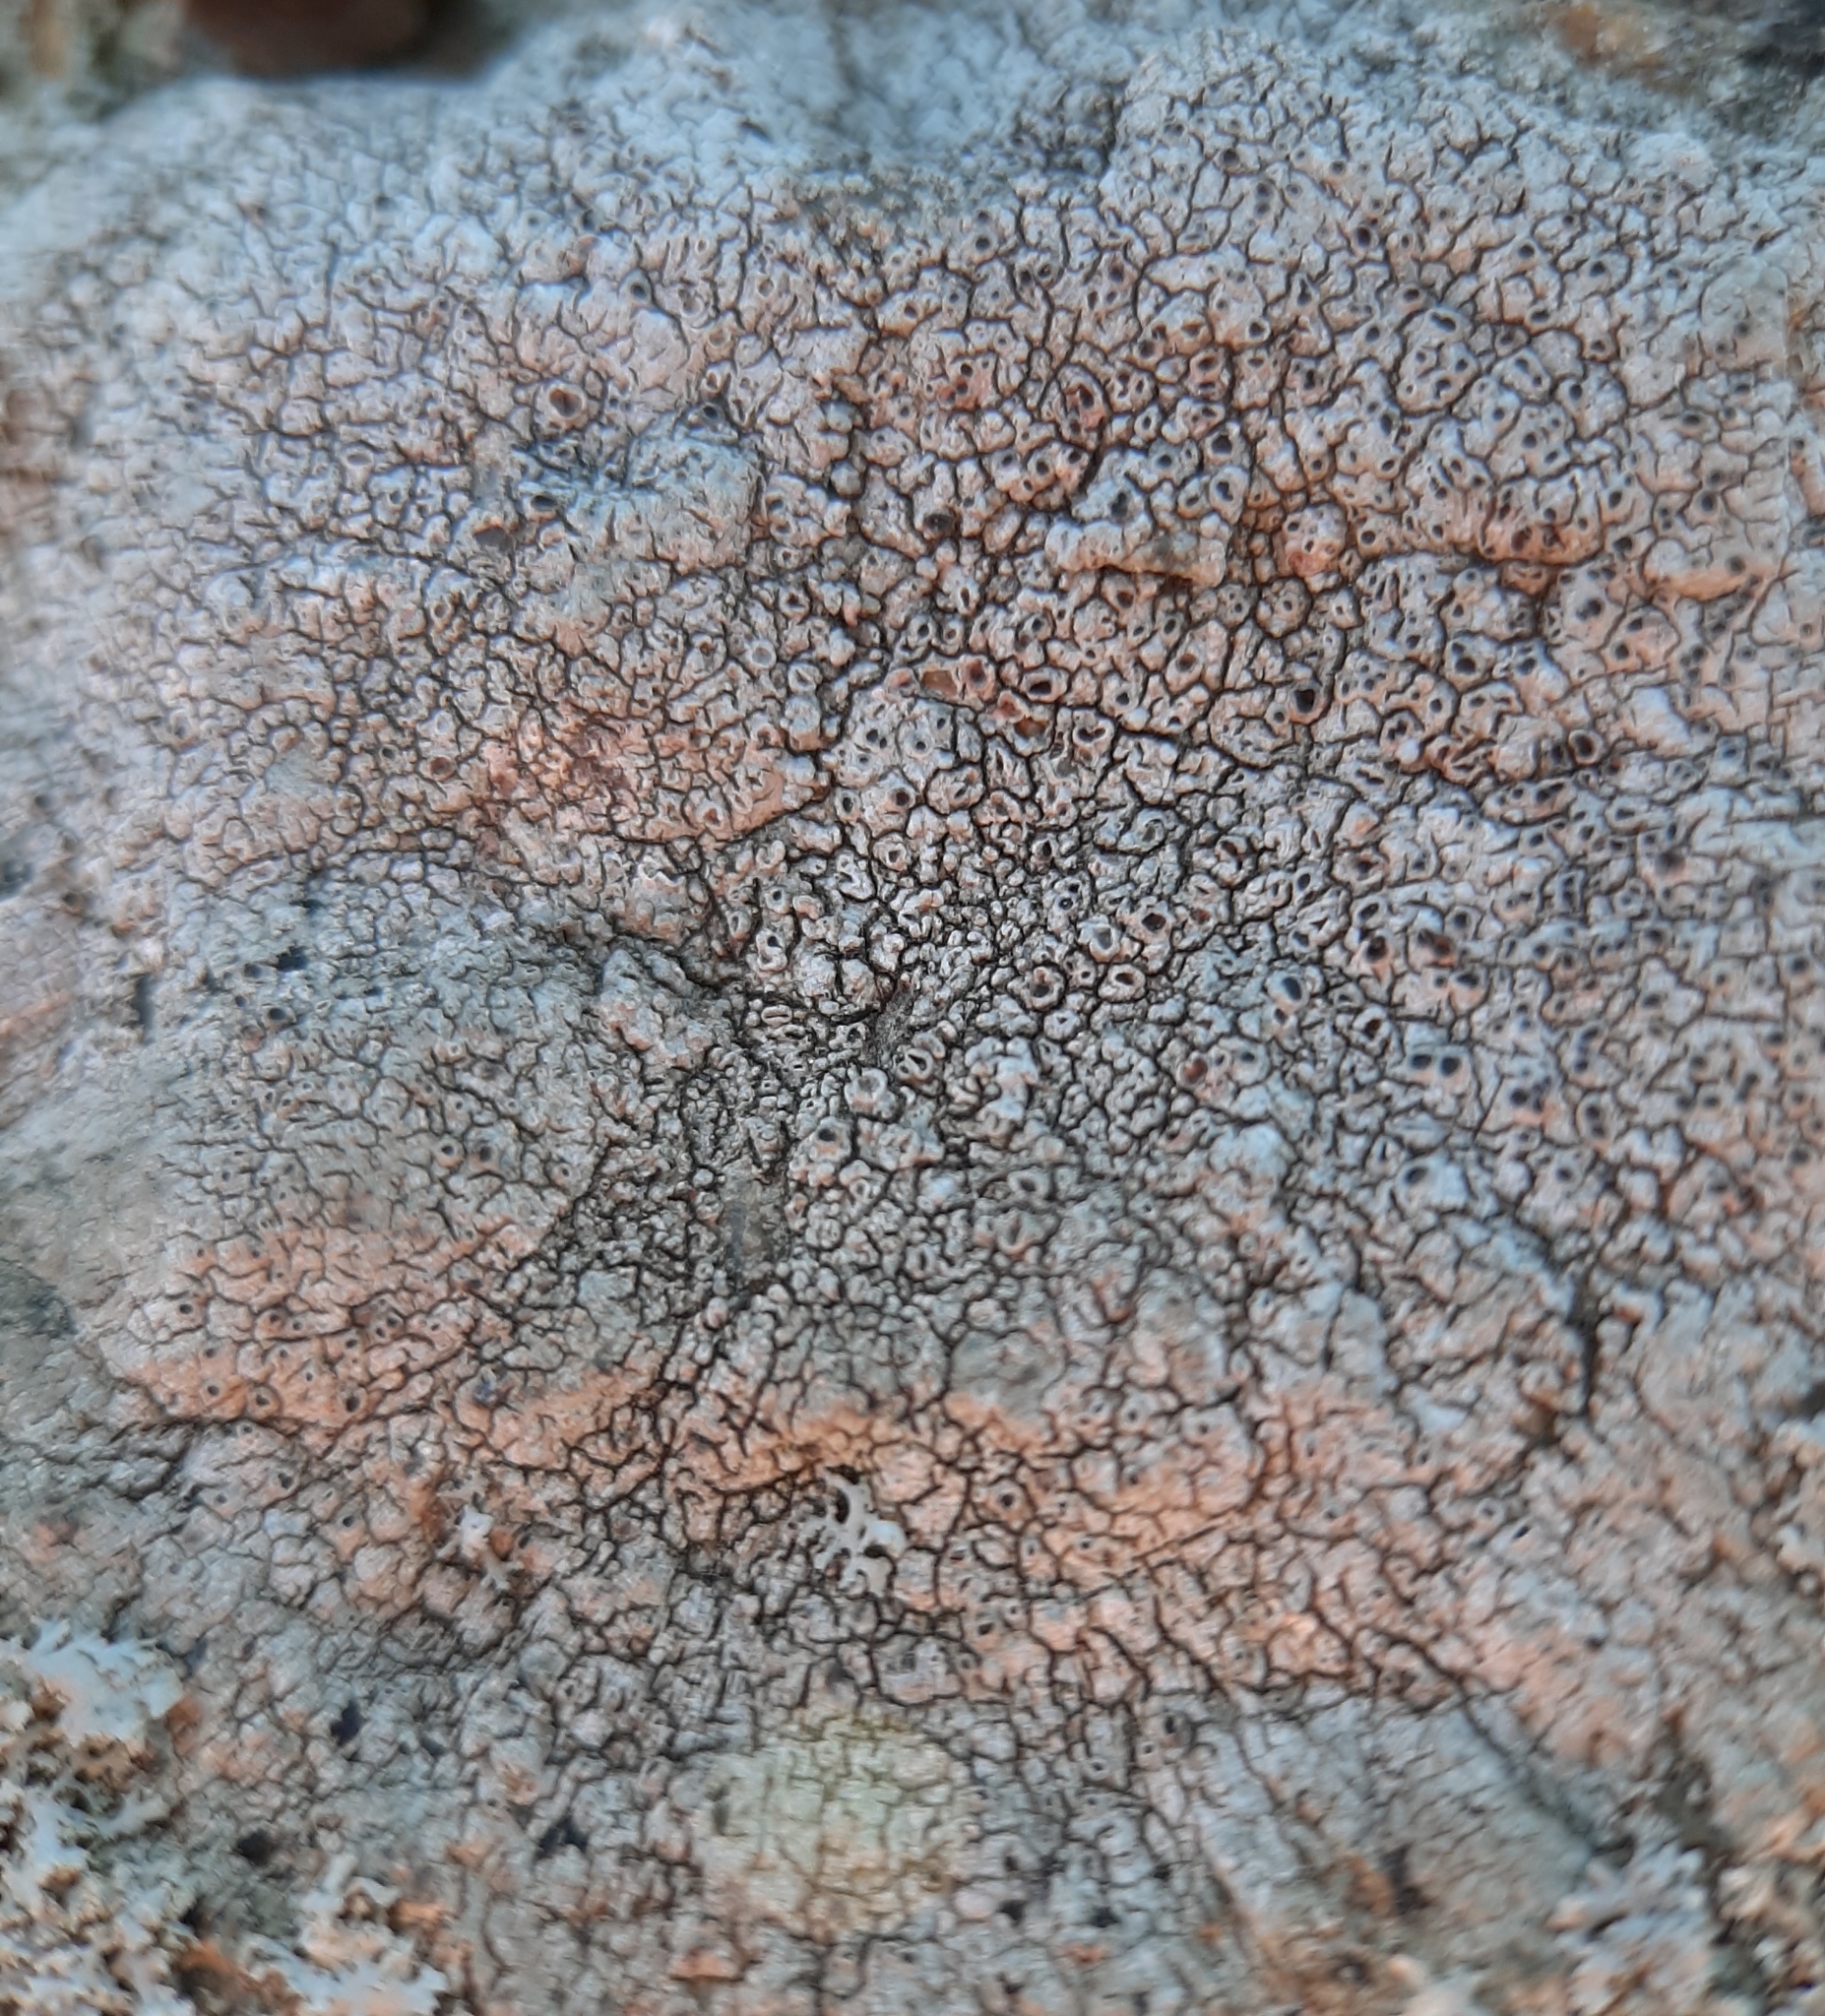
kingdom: Fungi
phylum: Ascomycota
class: Lecanoromycetes
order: Pertusariales
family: Megasporaceae
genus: Aspicilia
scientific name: Aspicilia cinerea
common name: Cinder lichen
